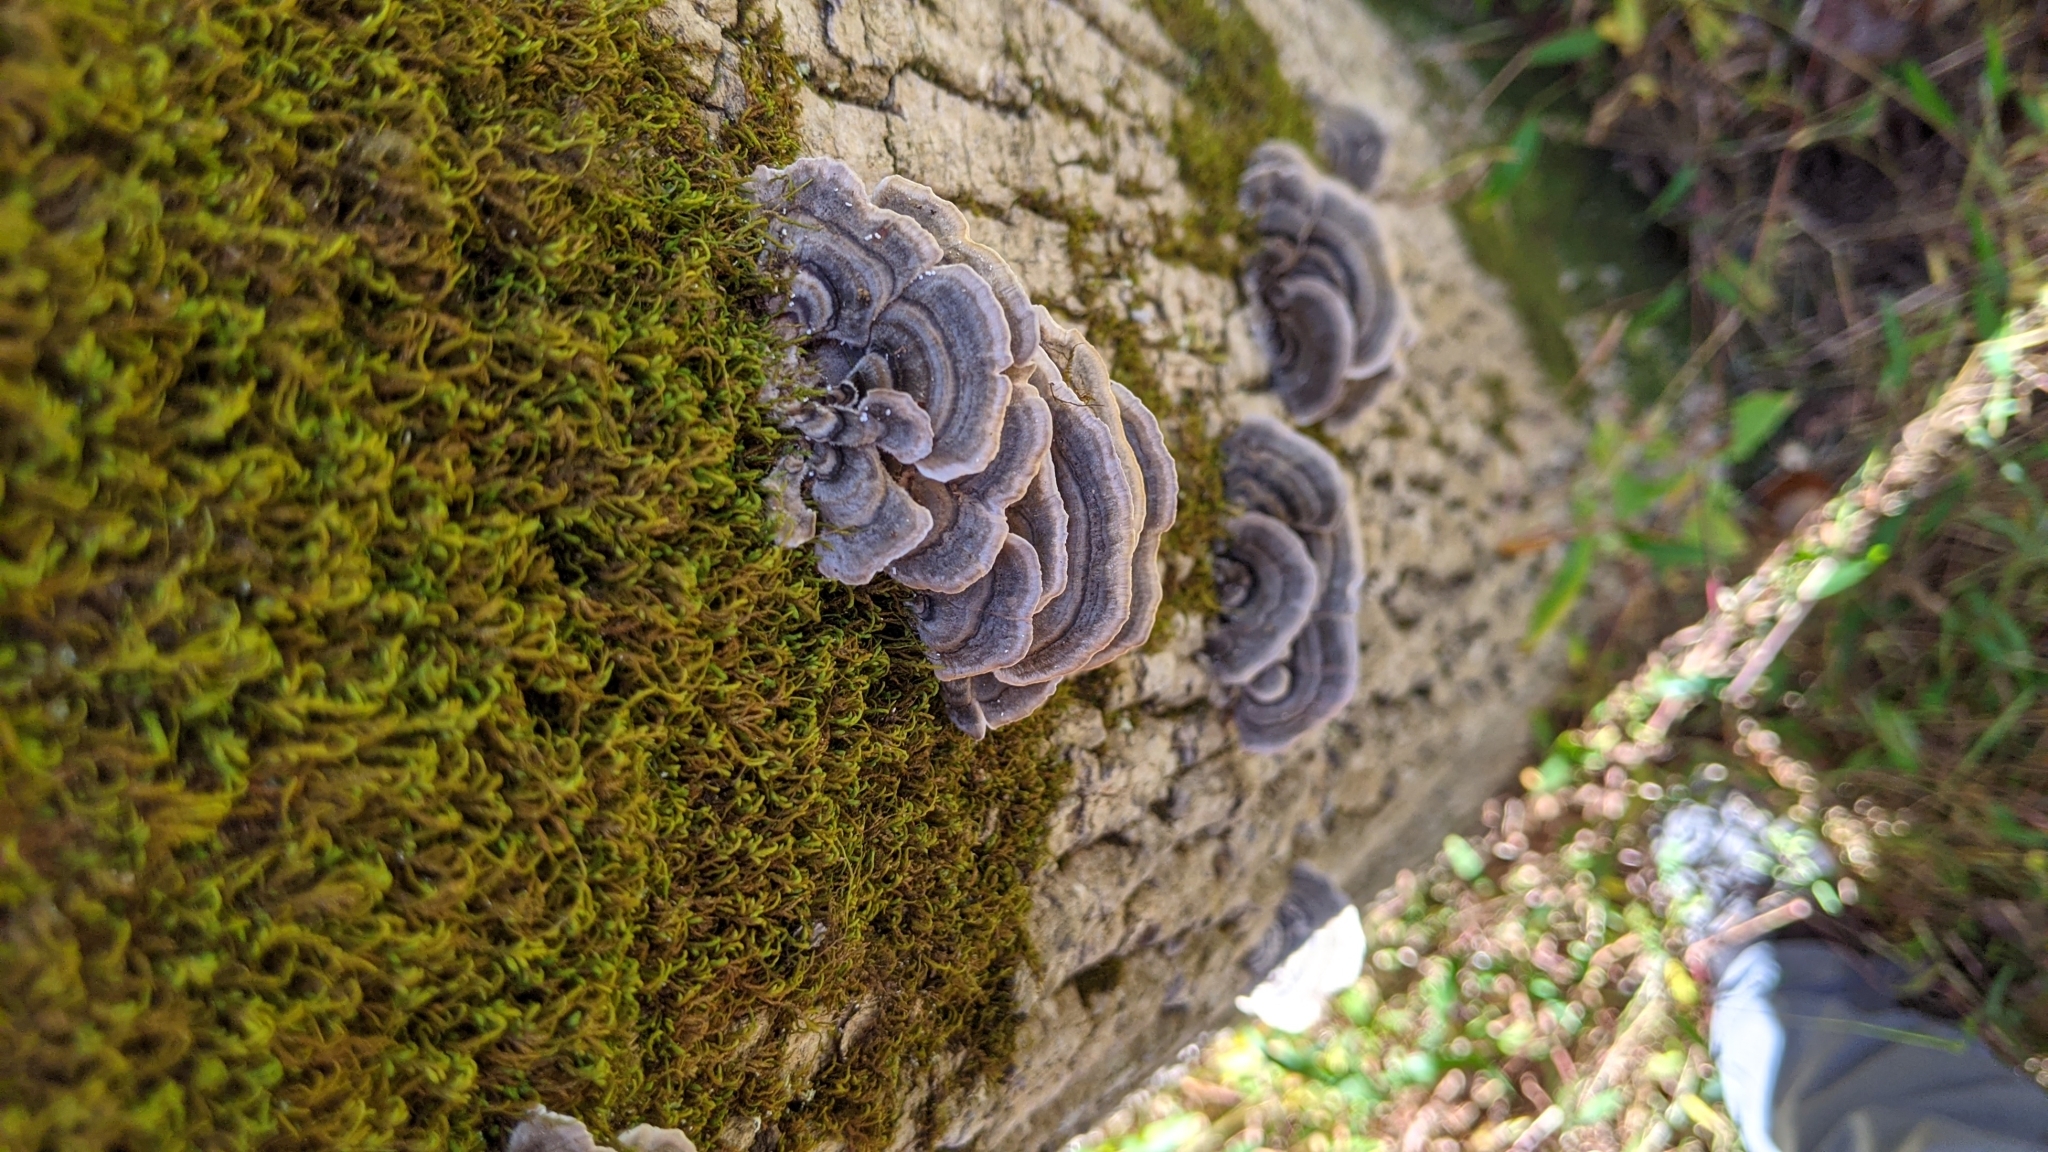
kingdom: Fungi
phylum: Basidiomycota
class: Agaricomycetes
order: Polyporales
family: Polyporaceae
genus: Trametes
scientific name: Trametes versicolor
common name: Turkeytail
